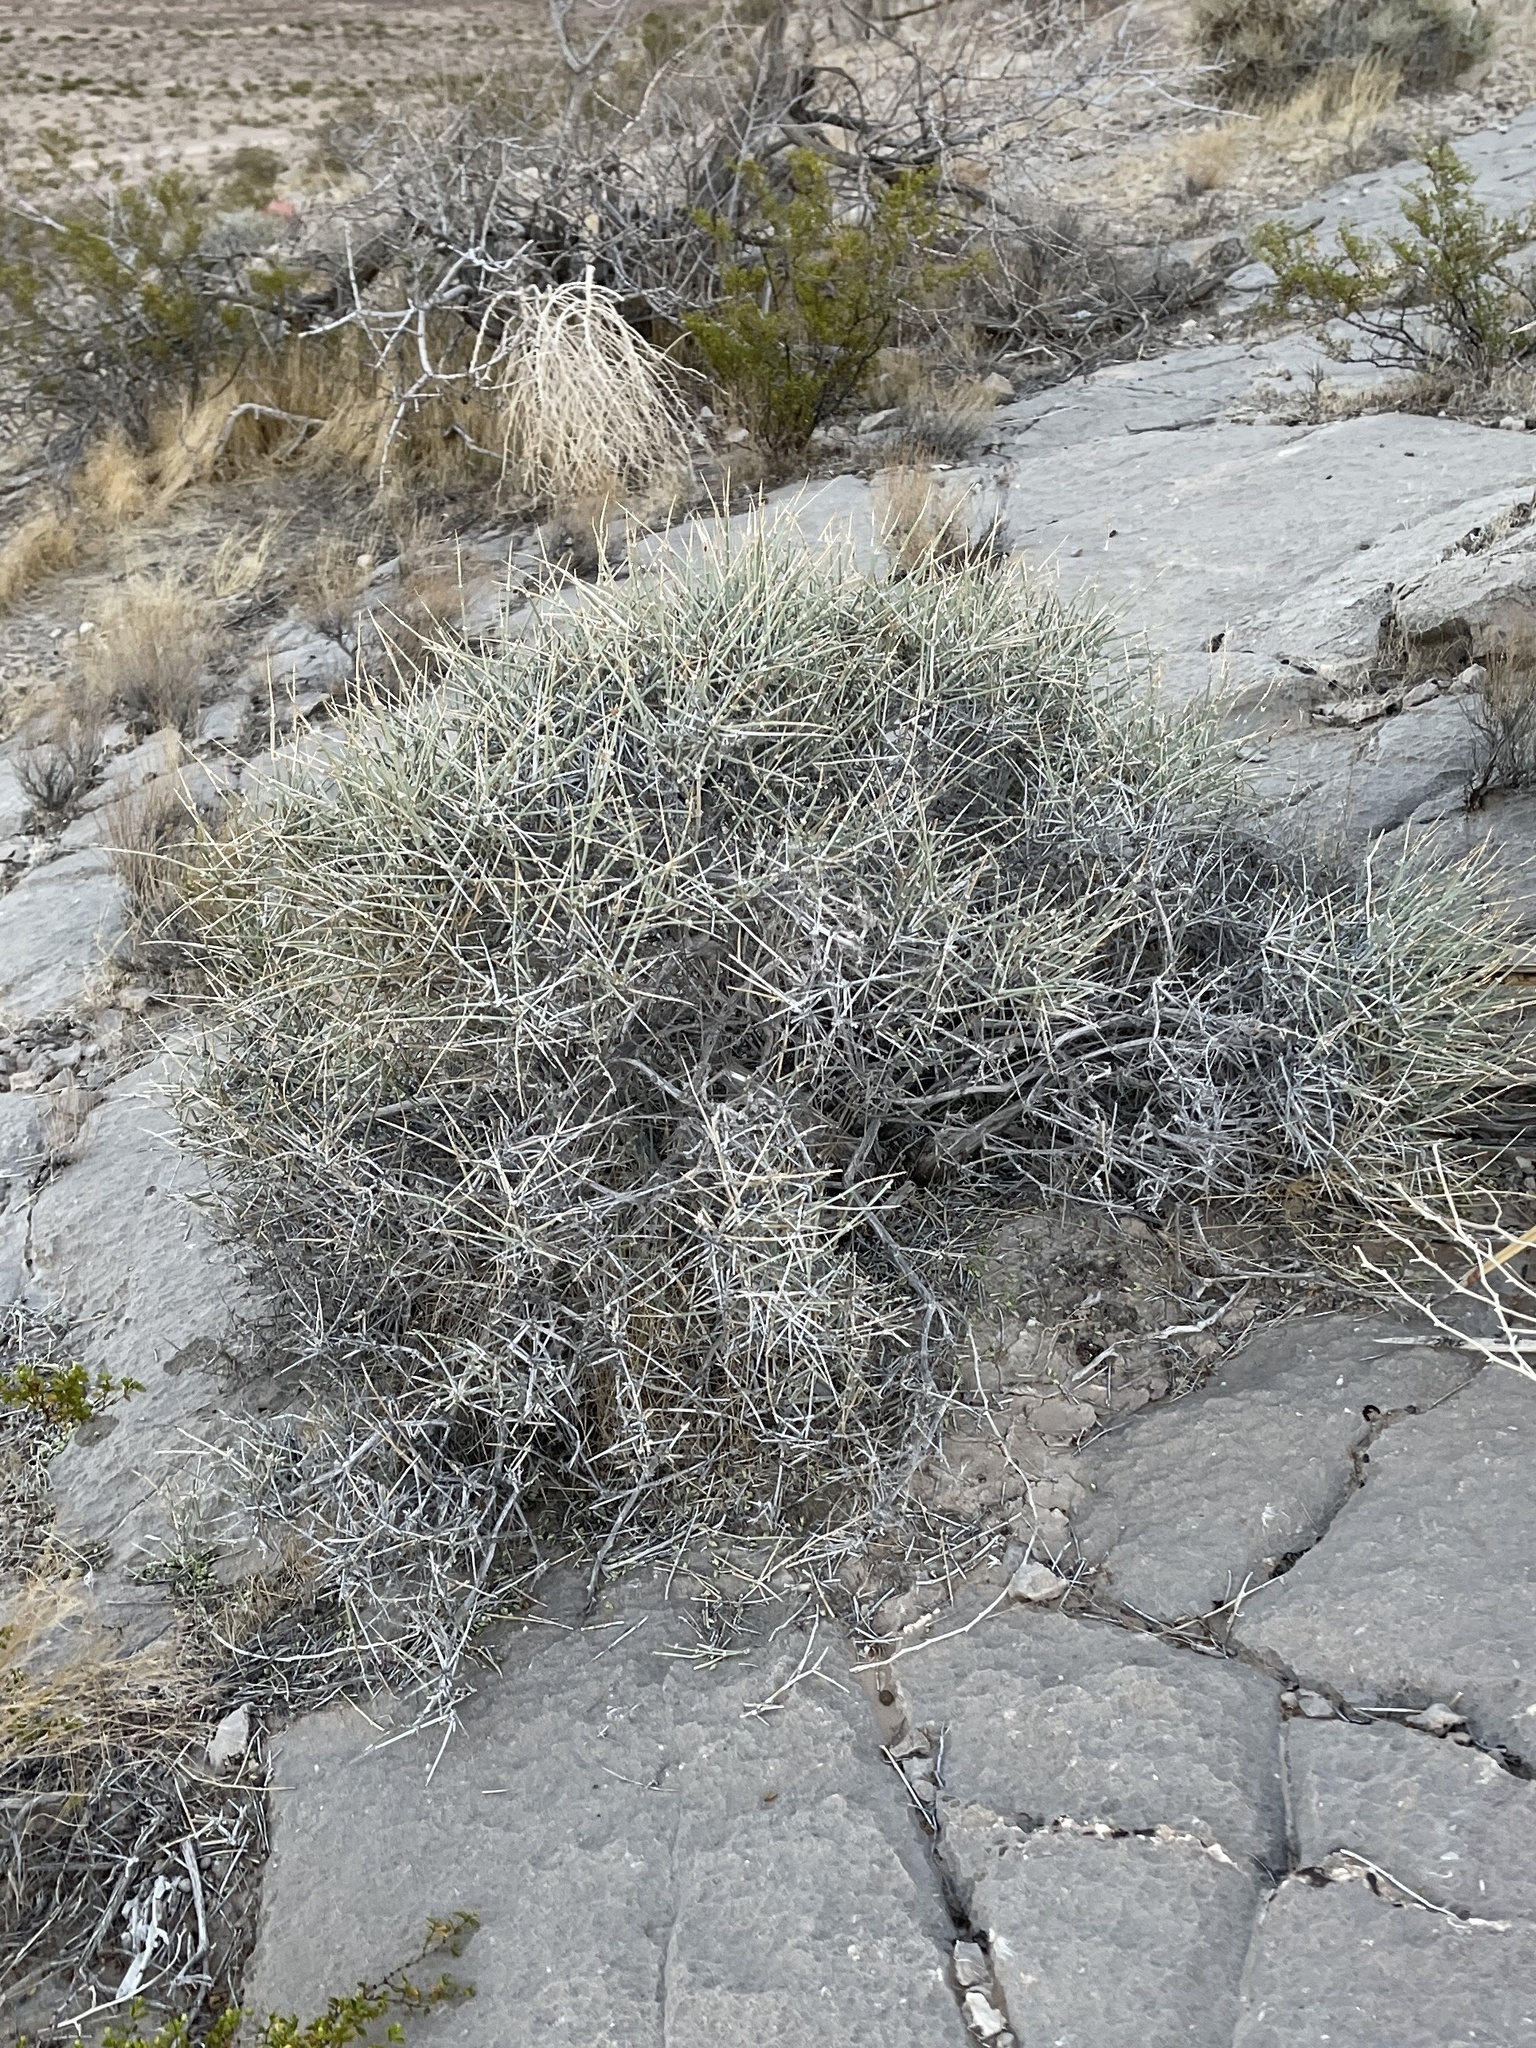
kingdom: Plantae
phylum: Tracheophyta
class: Gnetopsida
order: Ephedrales
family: Ephedraceae
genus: Ephedra
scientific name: Ephedra nevadensis
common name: Gray ephedra
